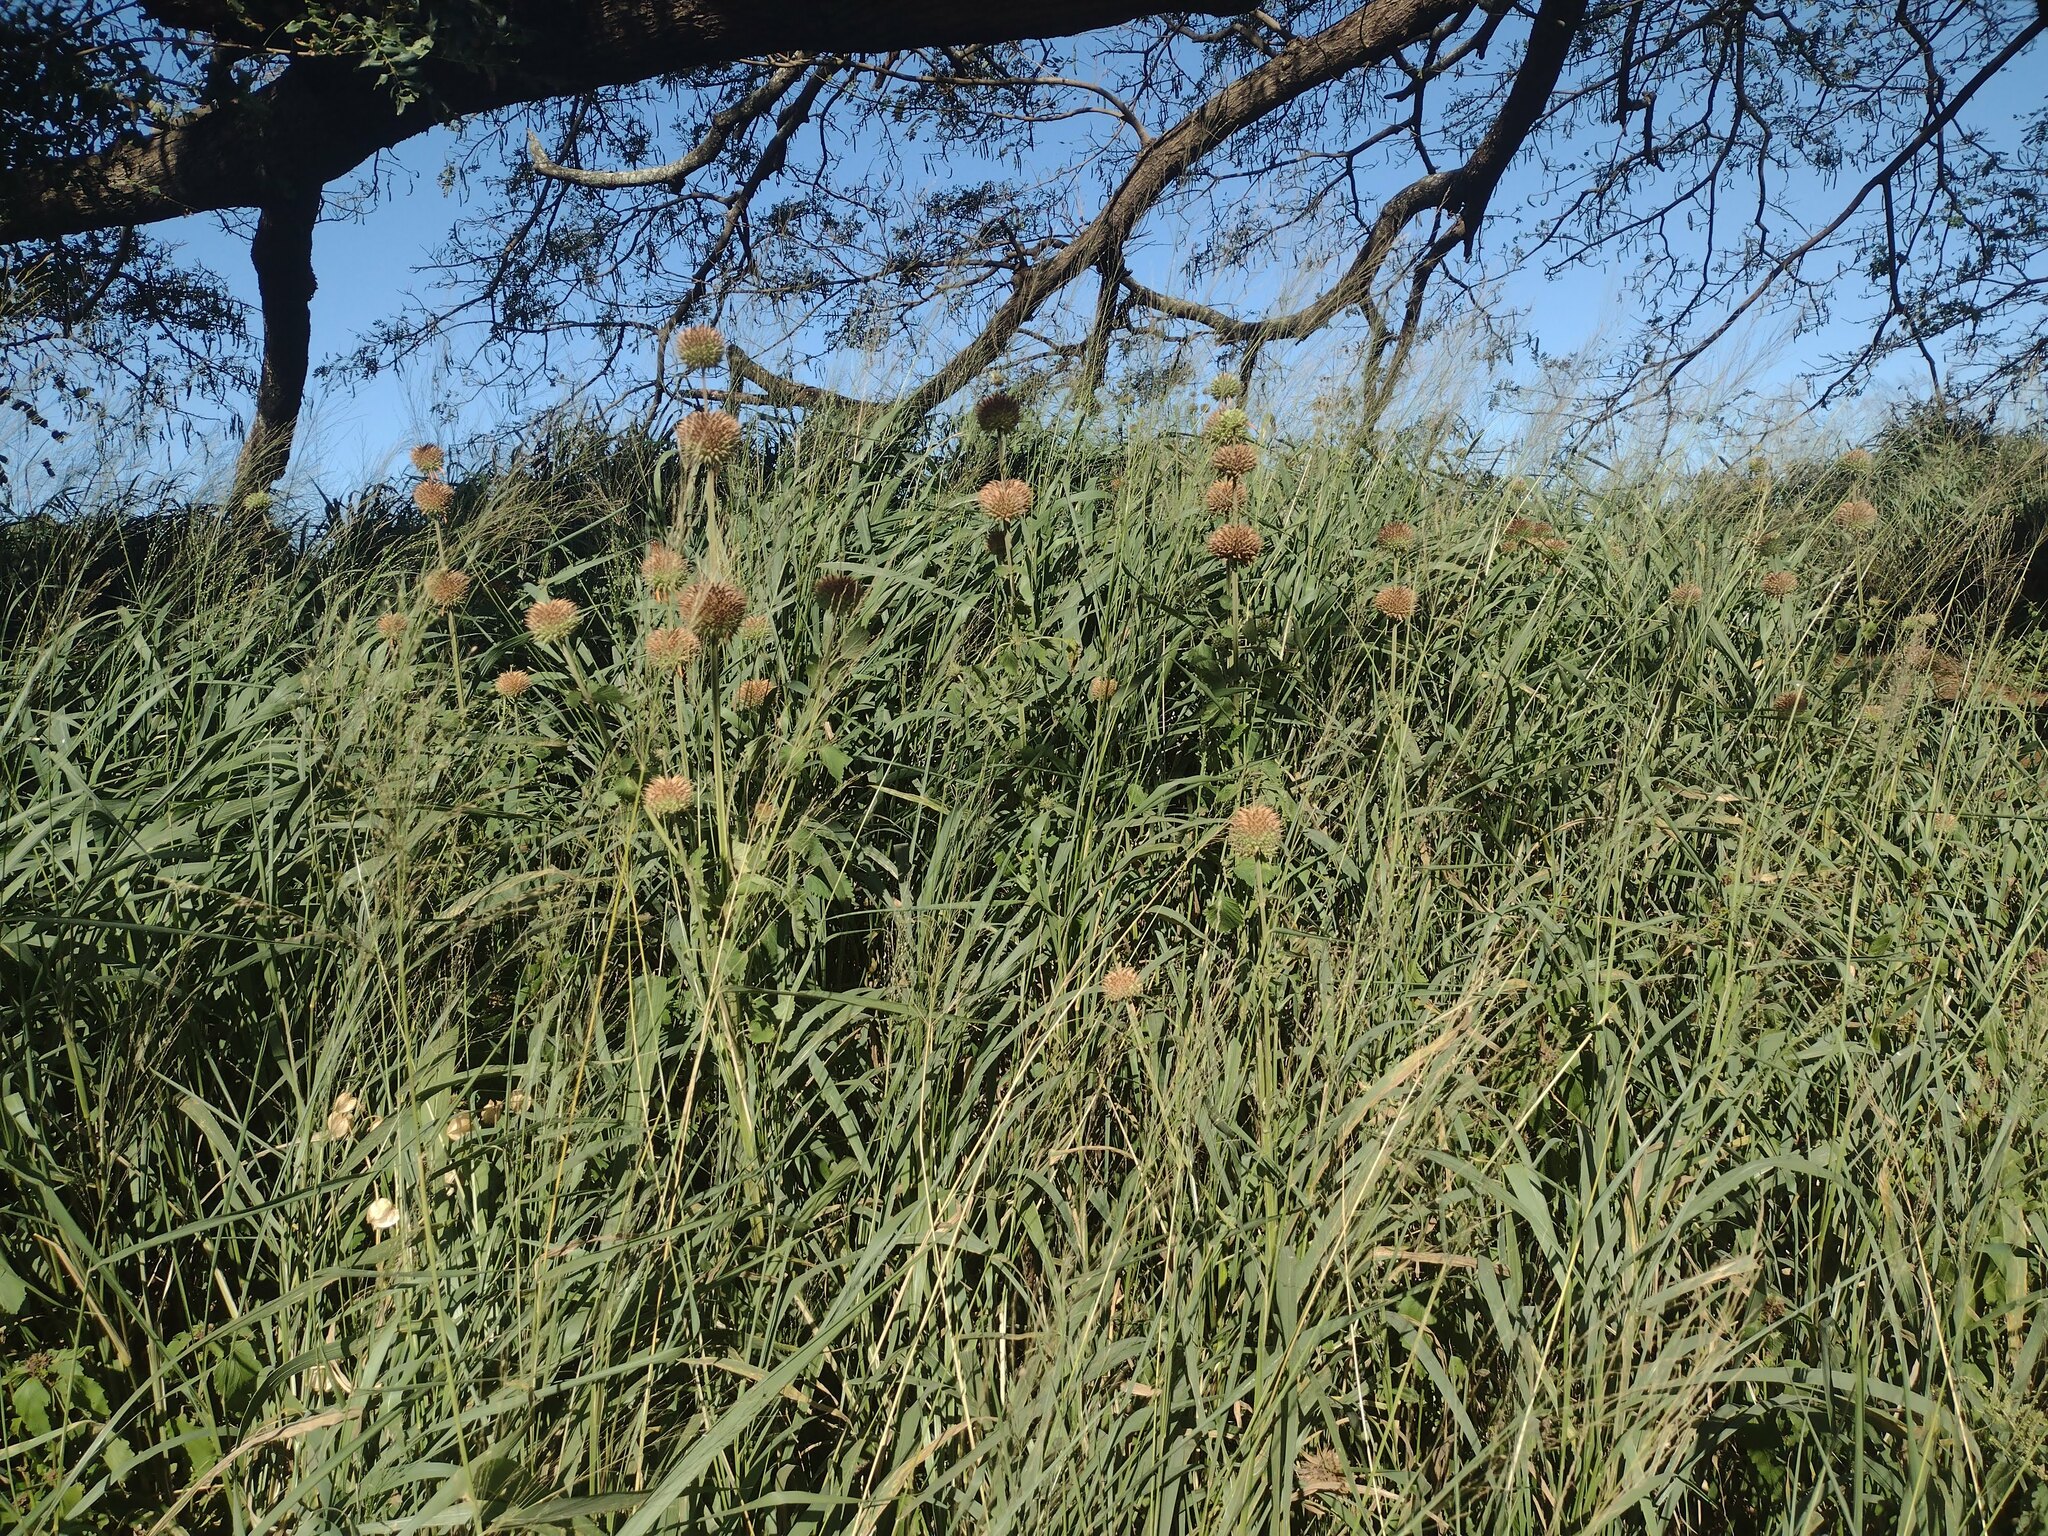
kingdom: Plantae
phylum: Tracheophyta
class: Magnoliopsida
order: Lamiales
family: Lamiaceae
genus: Leonotis
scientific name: Leonotis nepetifolia
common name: Christmas candlestick
